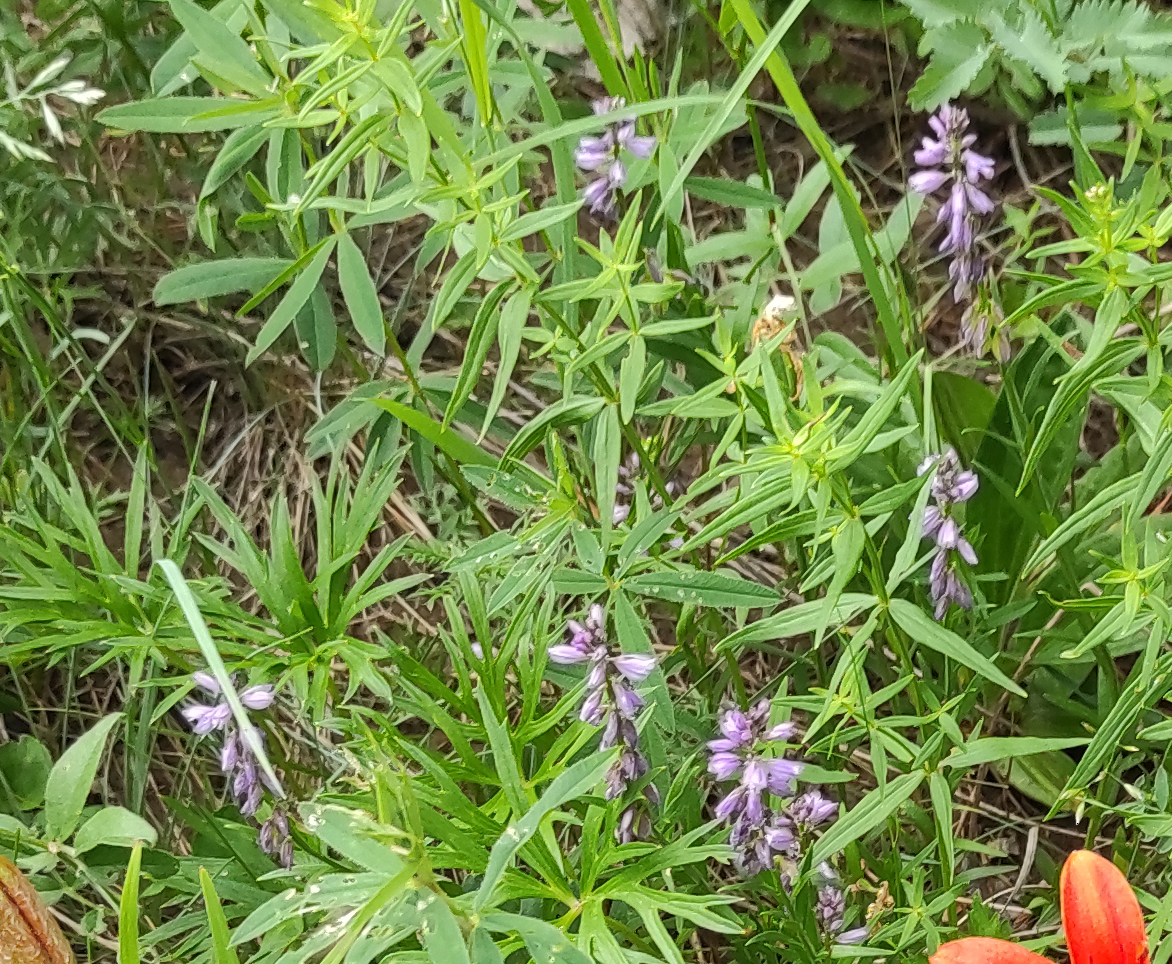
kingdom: Plantae
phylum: Tracheophyta
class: Magnoliopsida
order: Fabales
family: Polygalaceae
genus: Polygala
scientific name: Polygala comosa
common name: Tufted milkwort
